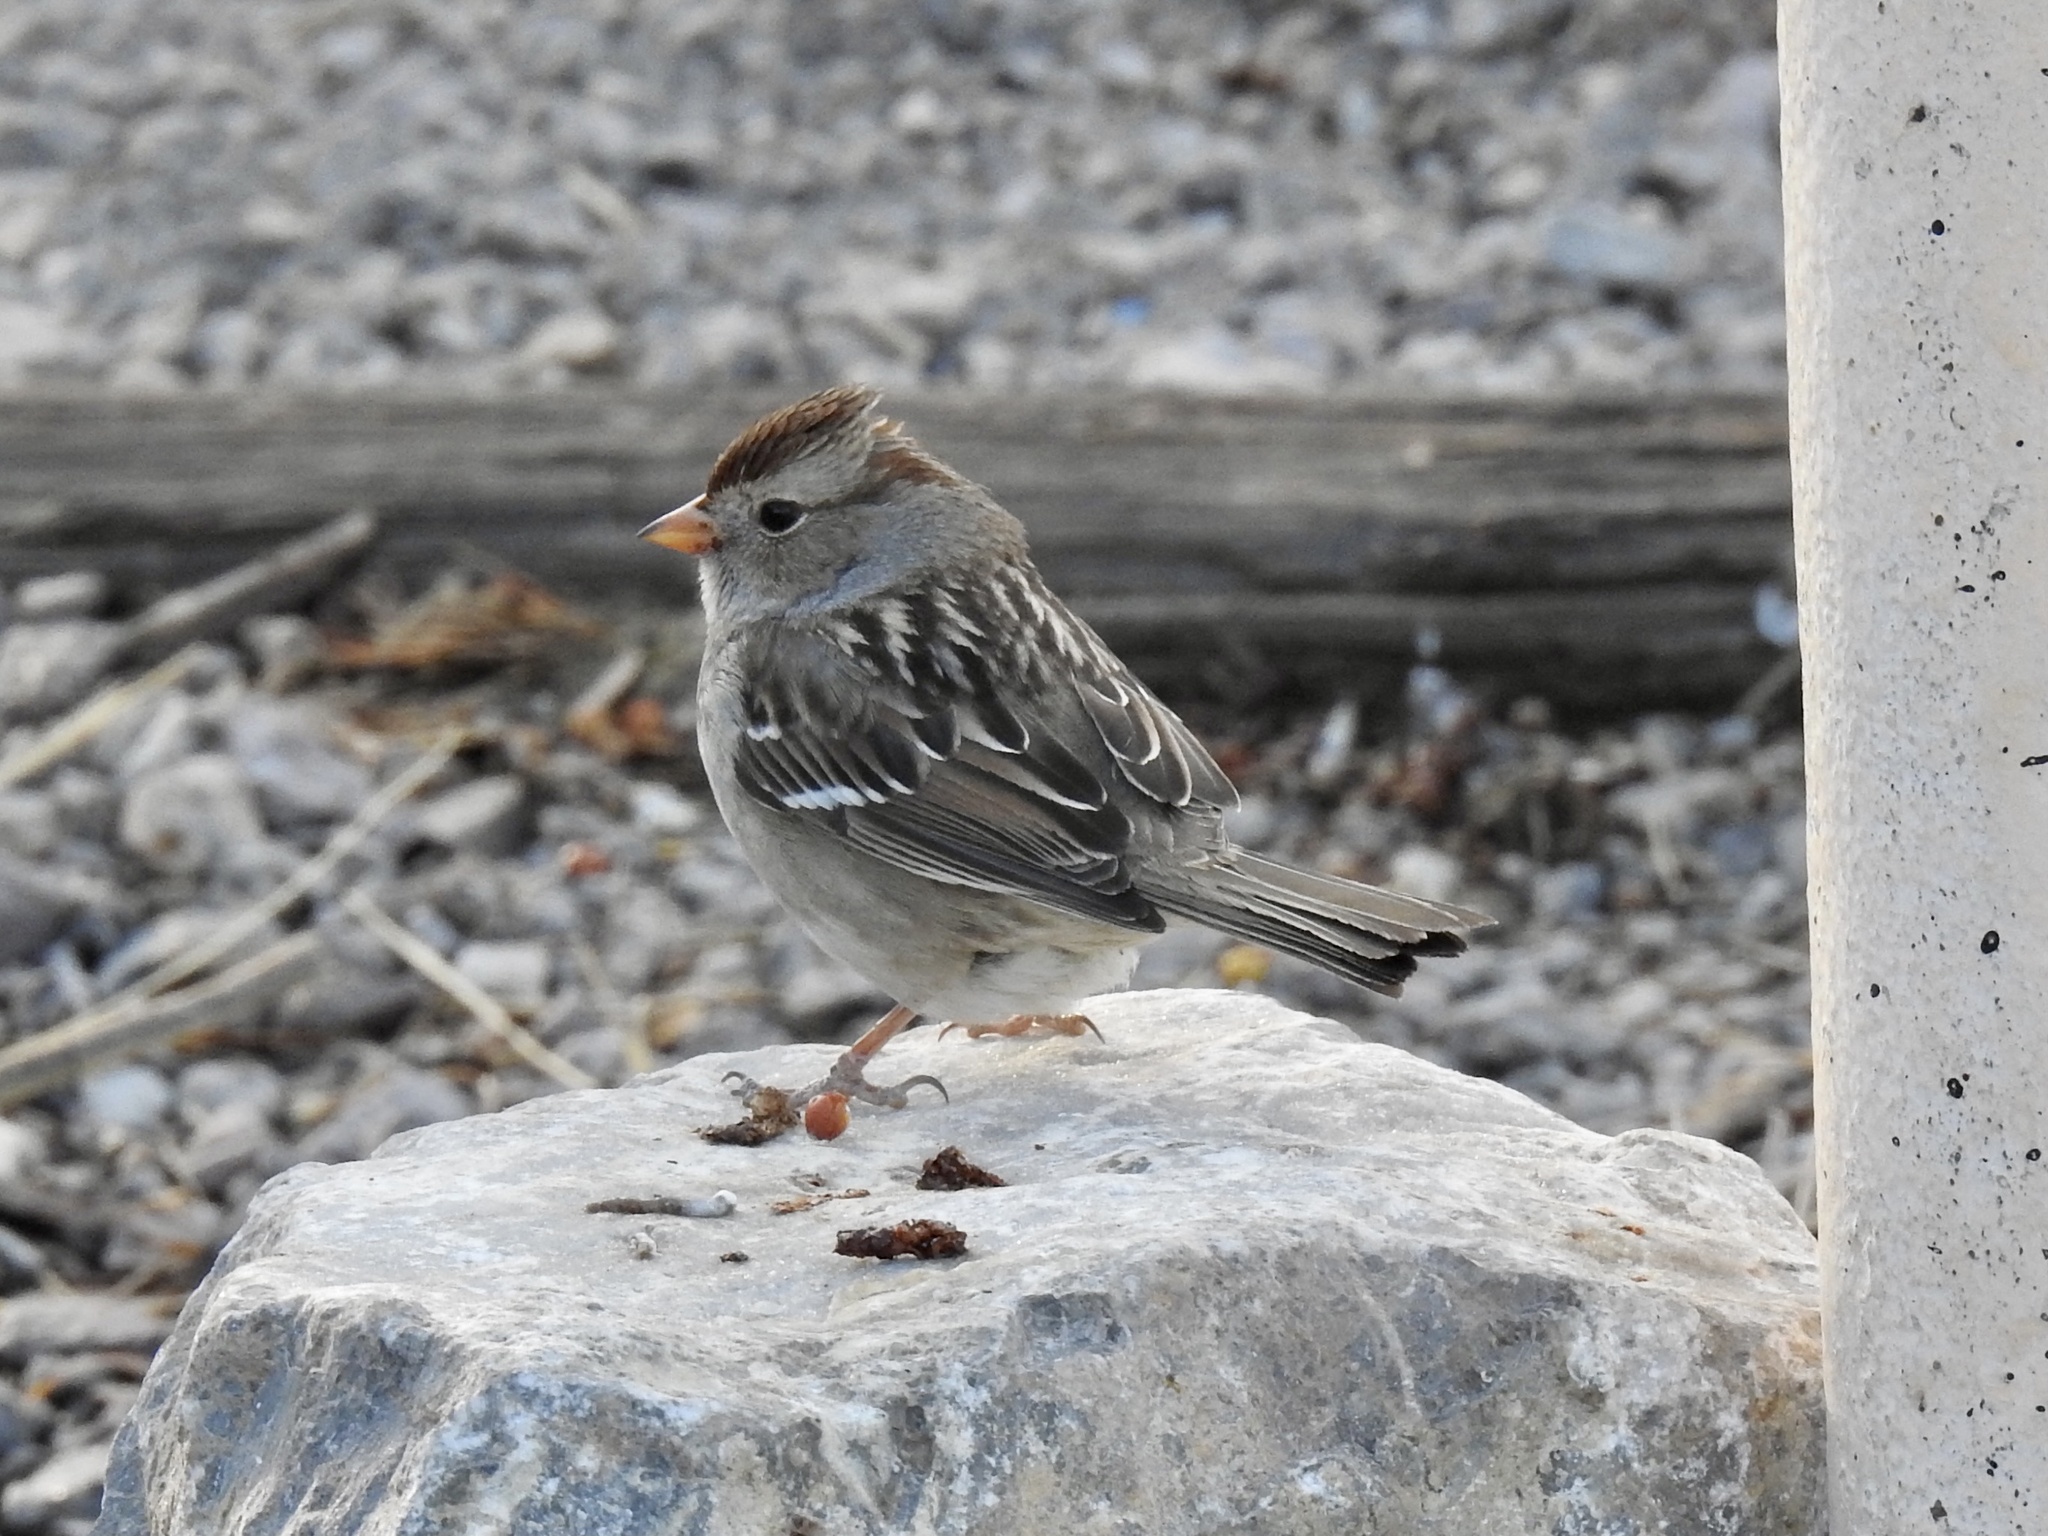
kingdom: Animalia
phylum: Chordata
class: Aves
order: Passeriformes
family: Passerellidae
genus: Zonotrichia
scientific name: Zonotrichia leucophrys
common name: White-crowned sparrow
